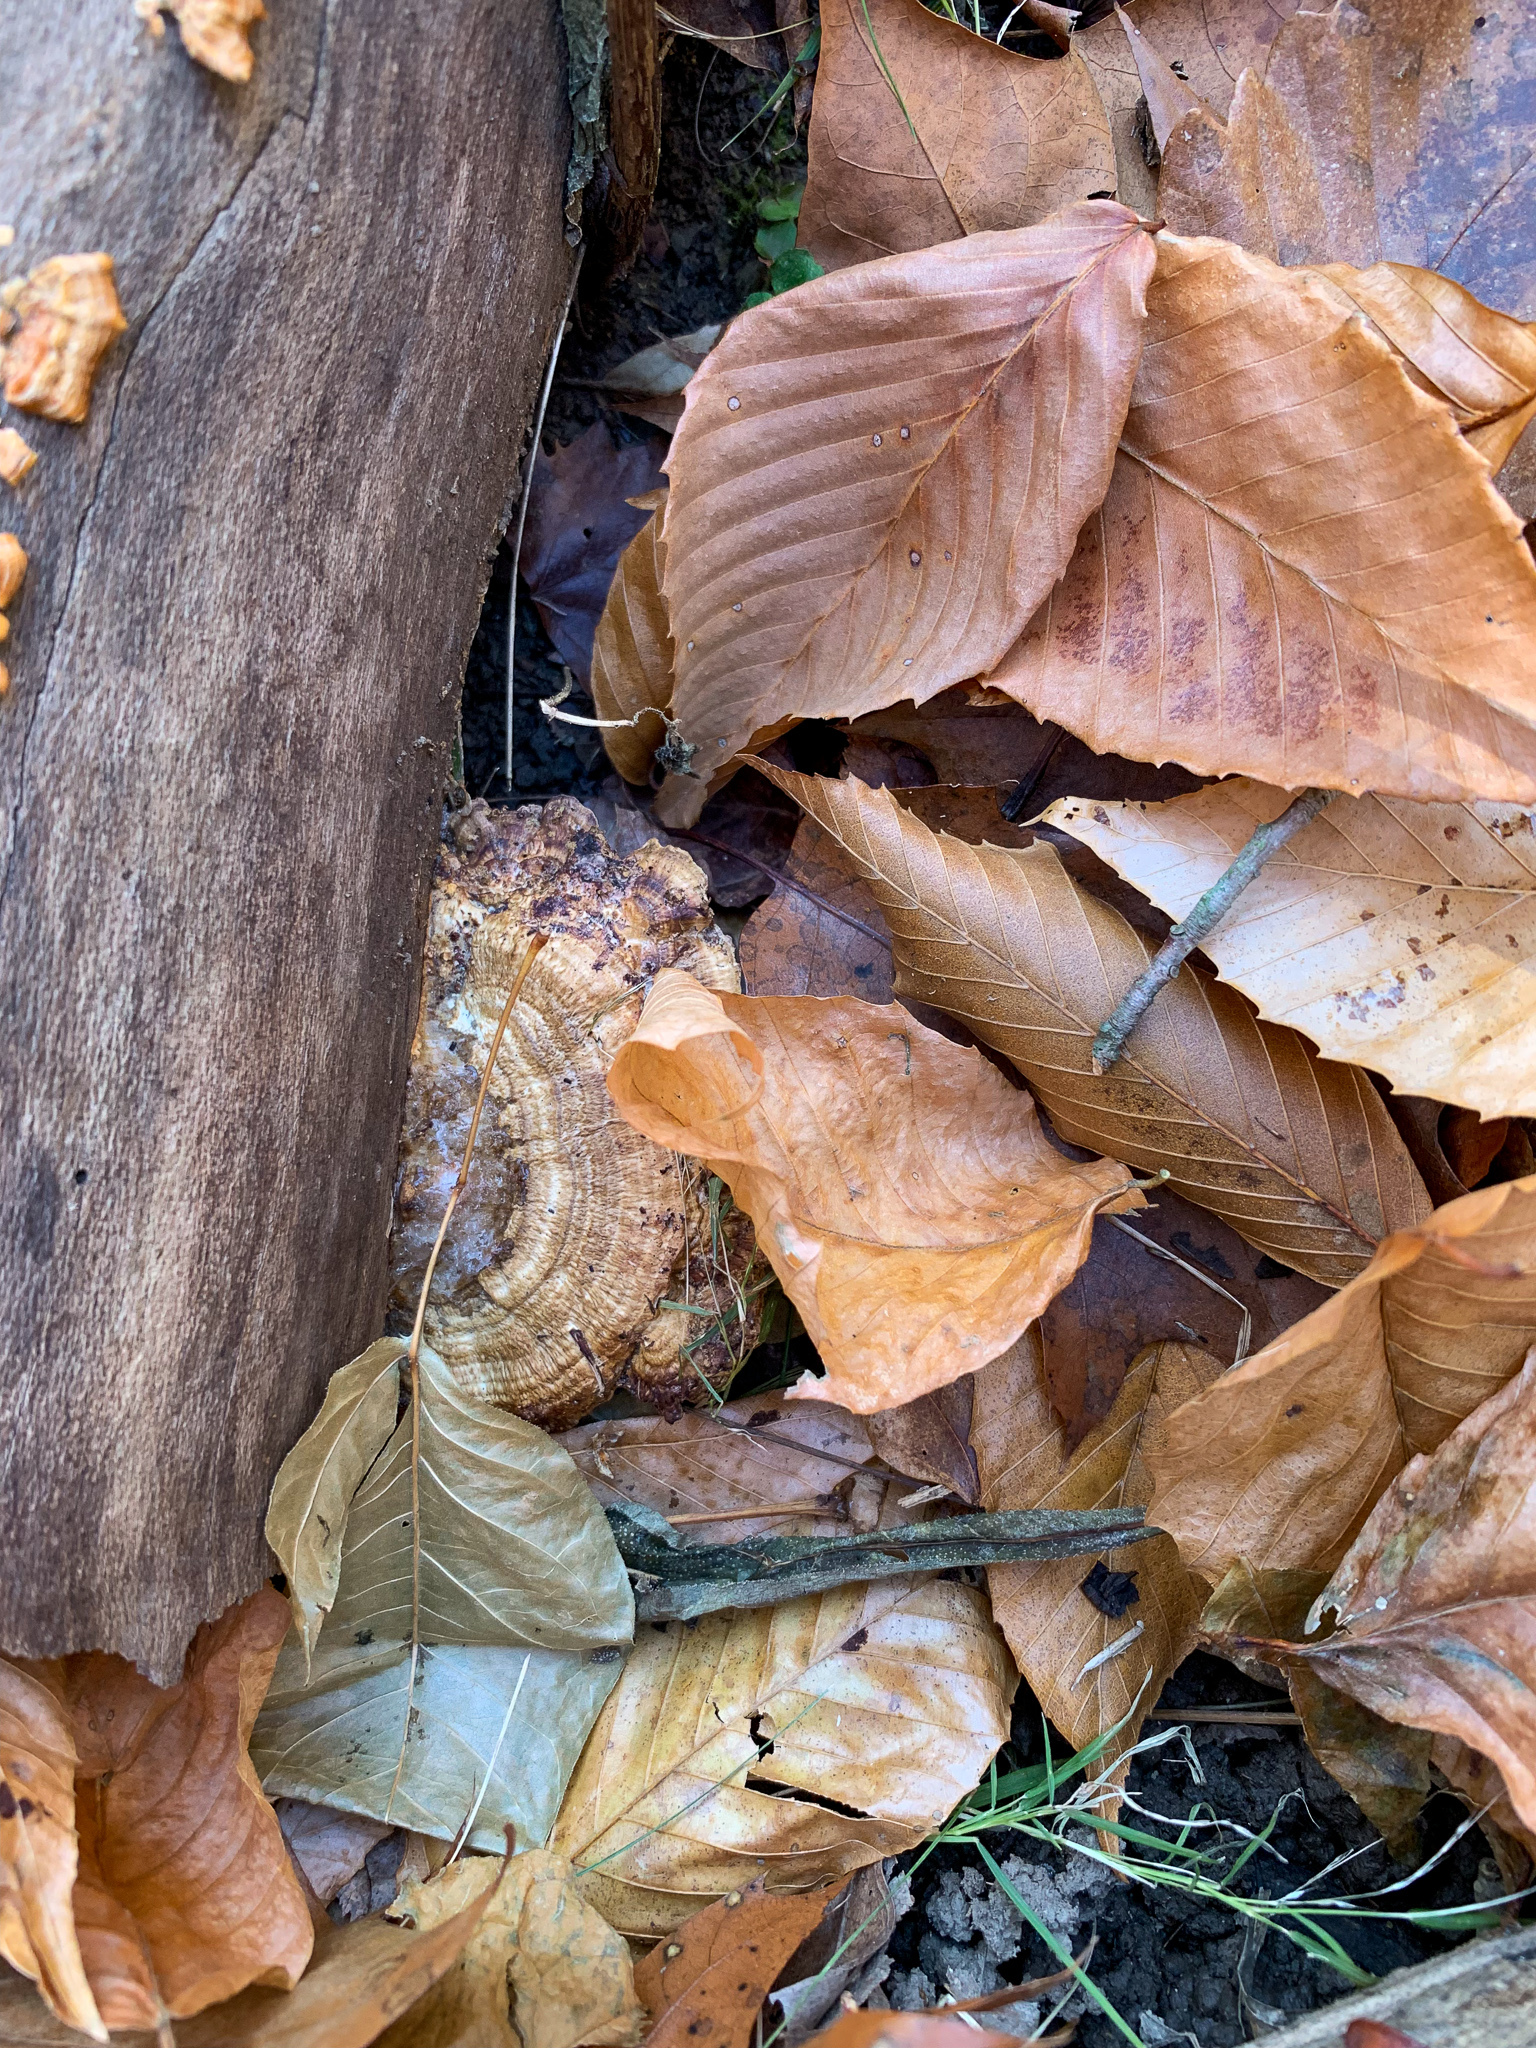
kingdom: Fungi
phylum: Basidiomycota
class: Agaricomycetes
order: Polyporales
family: Polyporaceae
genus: Daedaleopsis
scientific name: Daedaleopsis confragosa
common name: Blushing bracket
